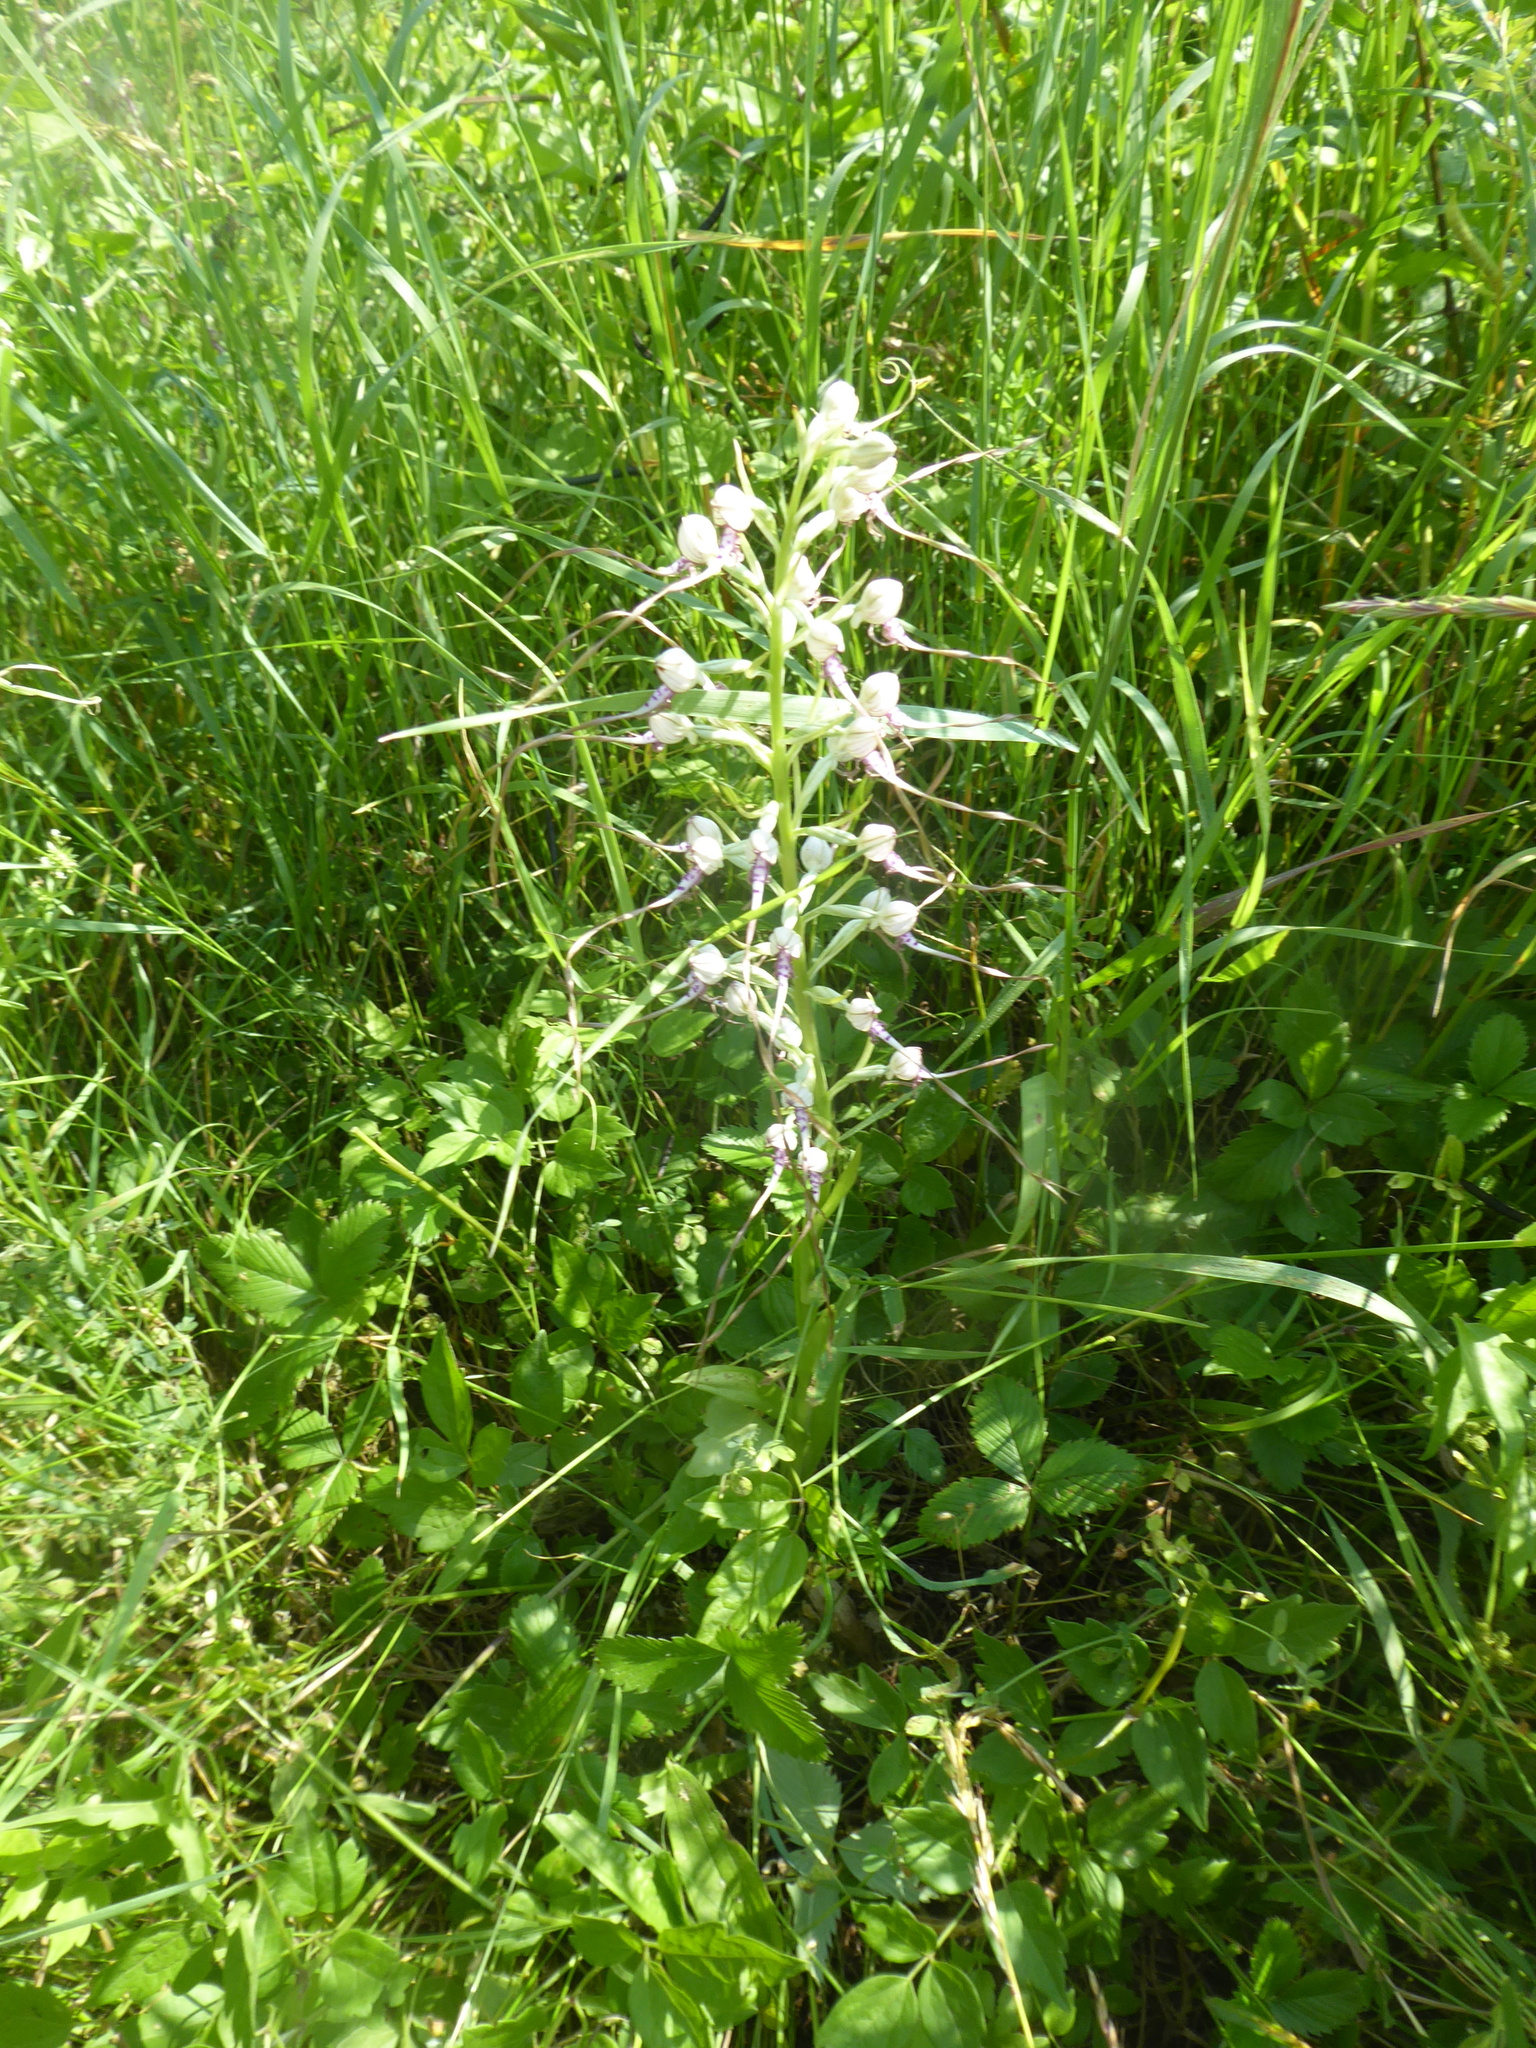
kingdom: Plantae
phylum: Tracheophyta
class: Liliopsida
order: Asparagales
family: Orchidaceae
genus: Himantoglossum
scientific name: Himantoglossum adriaticum
